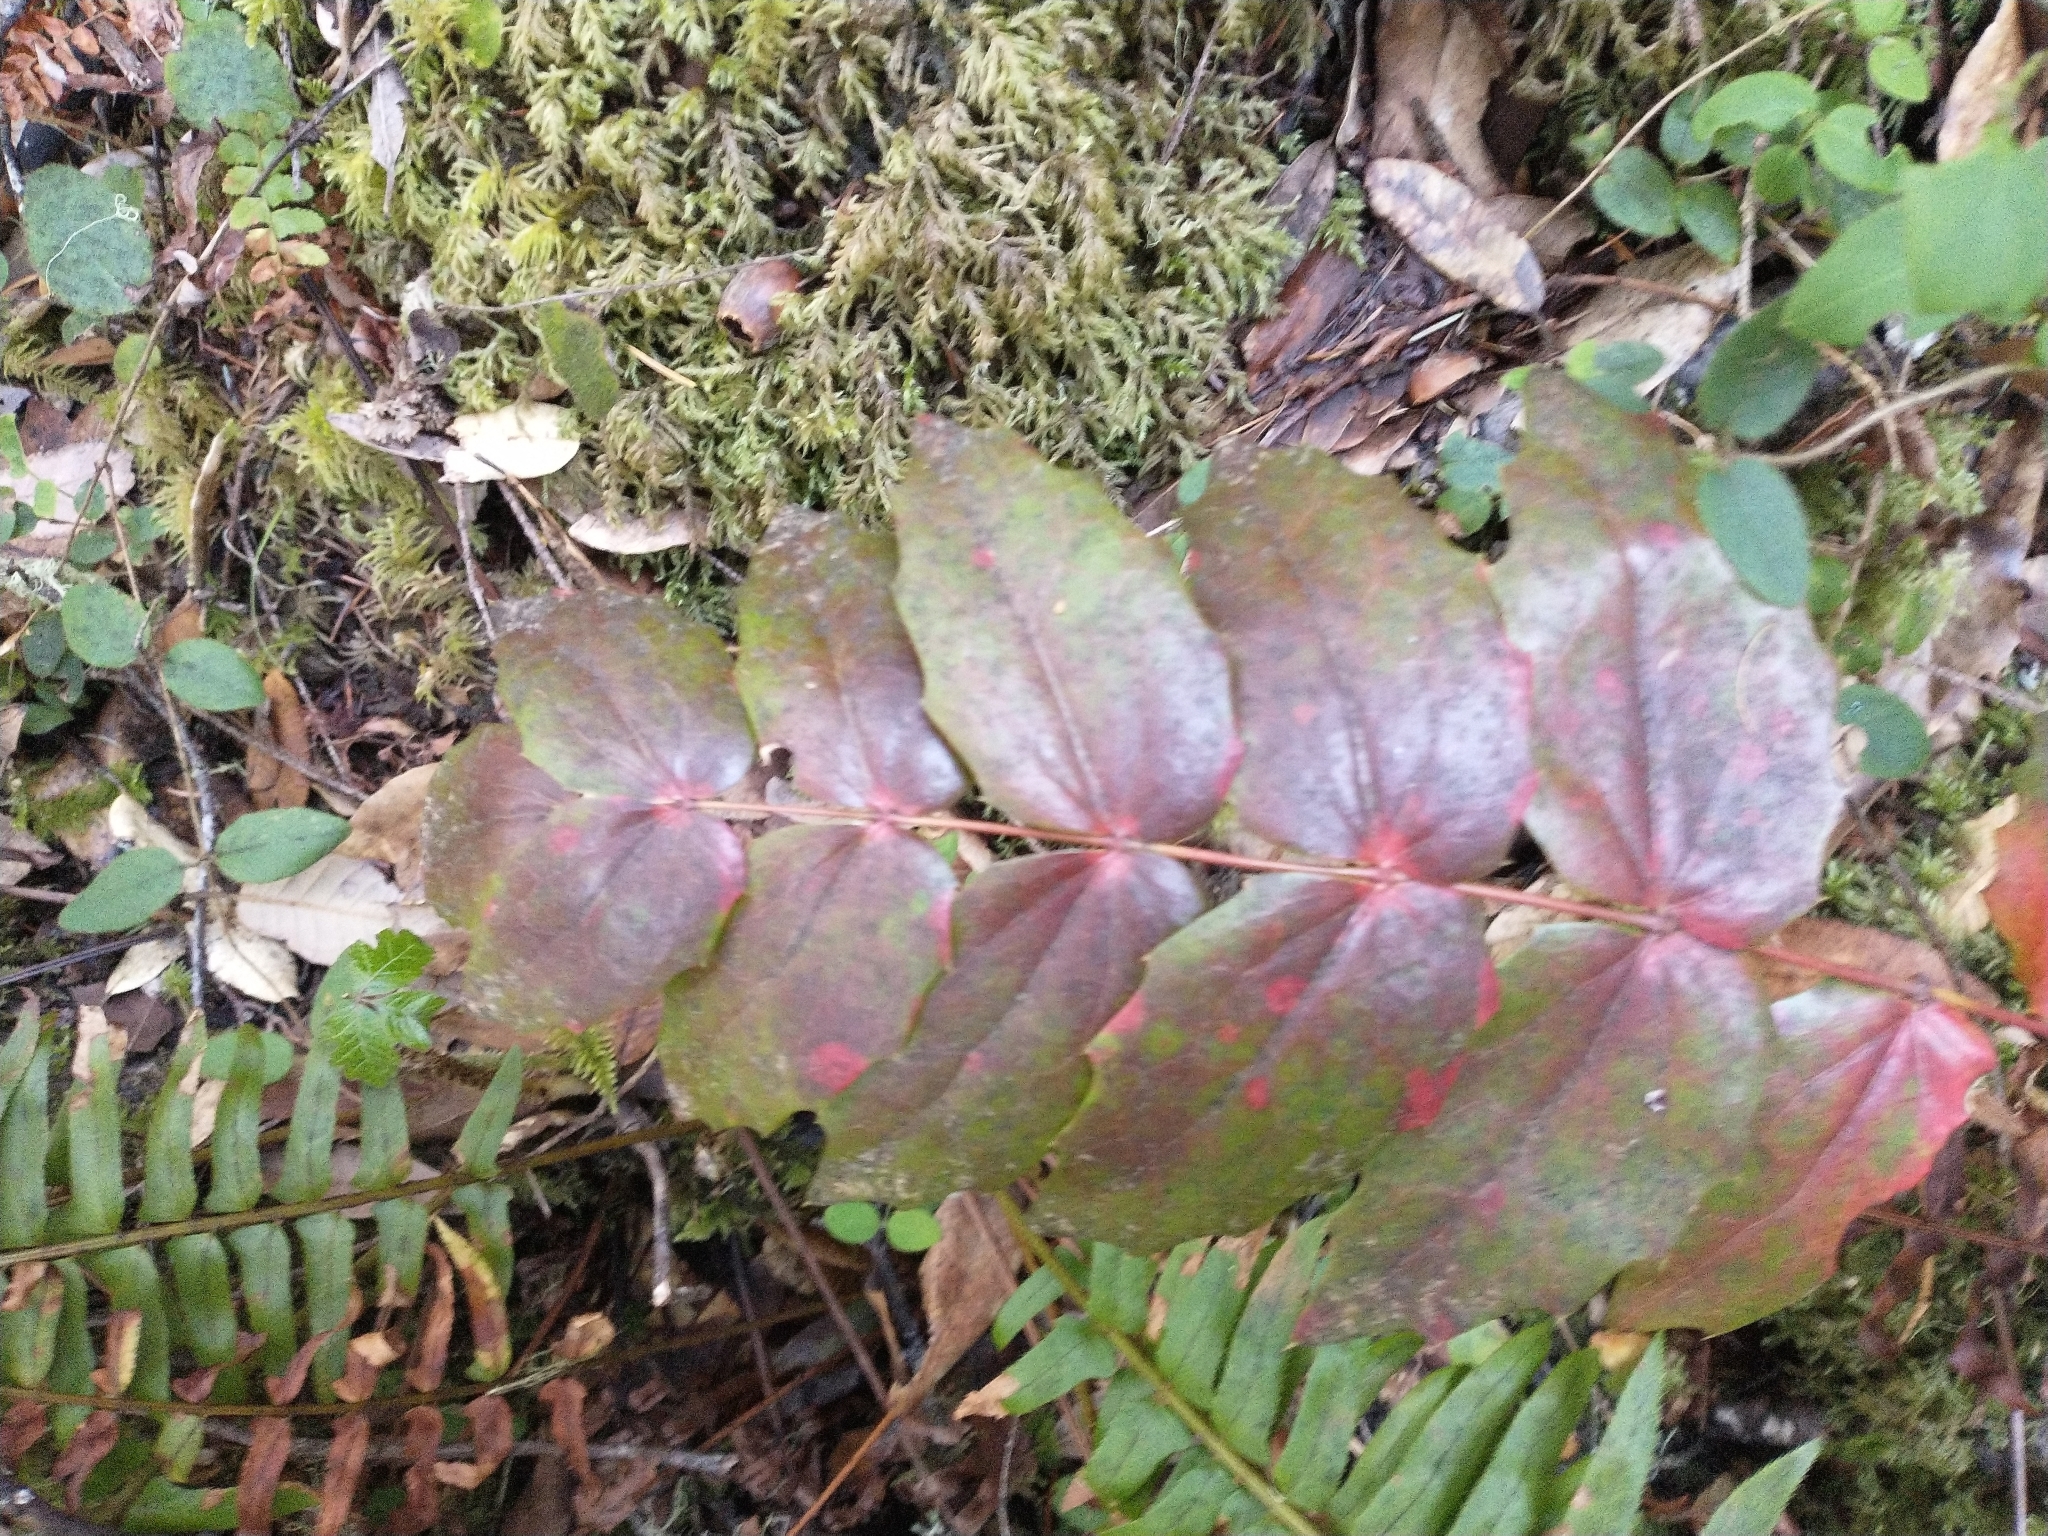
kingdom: Plantae
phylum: Tracheophyta
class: Magnoliopsida
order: Ranunculales
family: Berberidaceae
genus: Mahonia
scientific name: Mahonia nervosa
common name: Cascade oregon-grape
